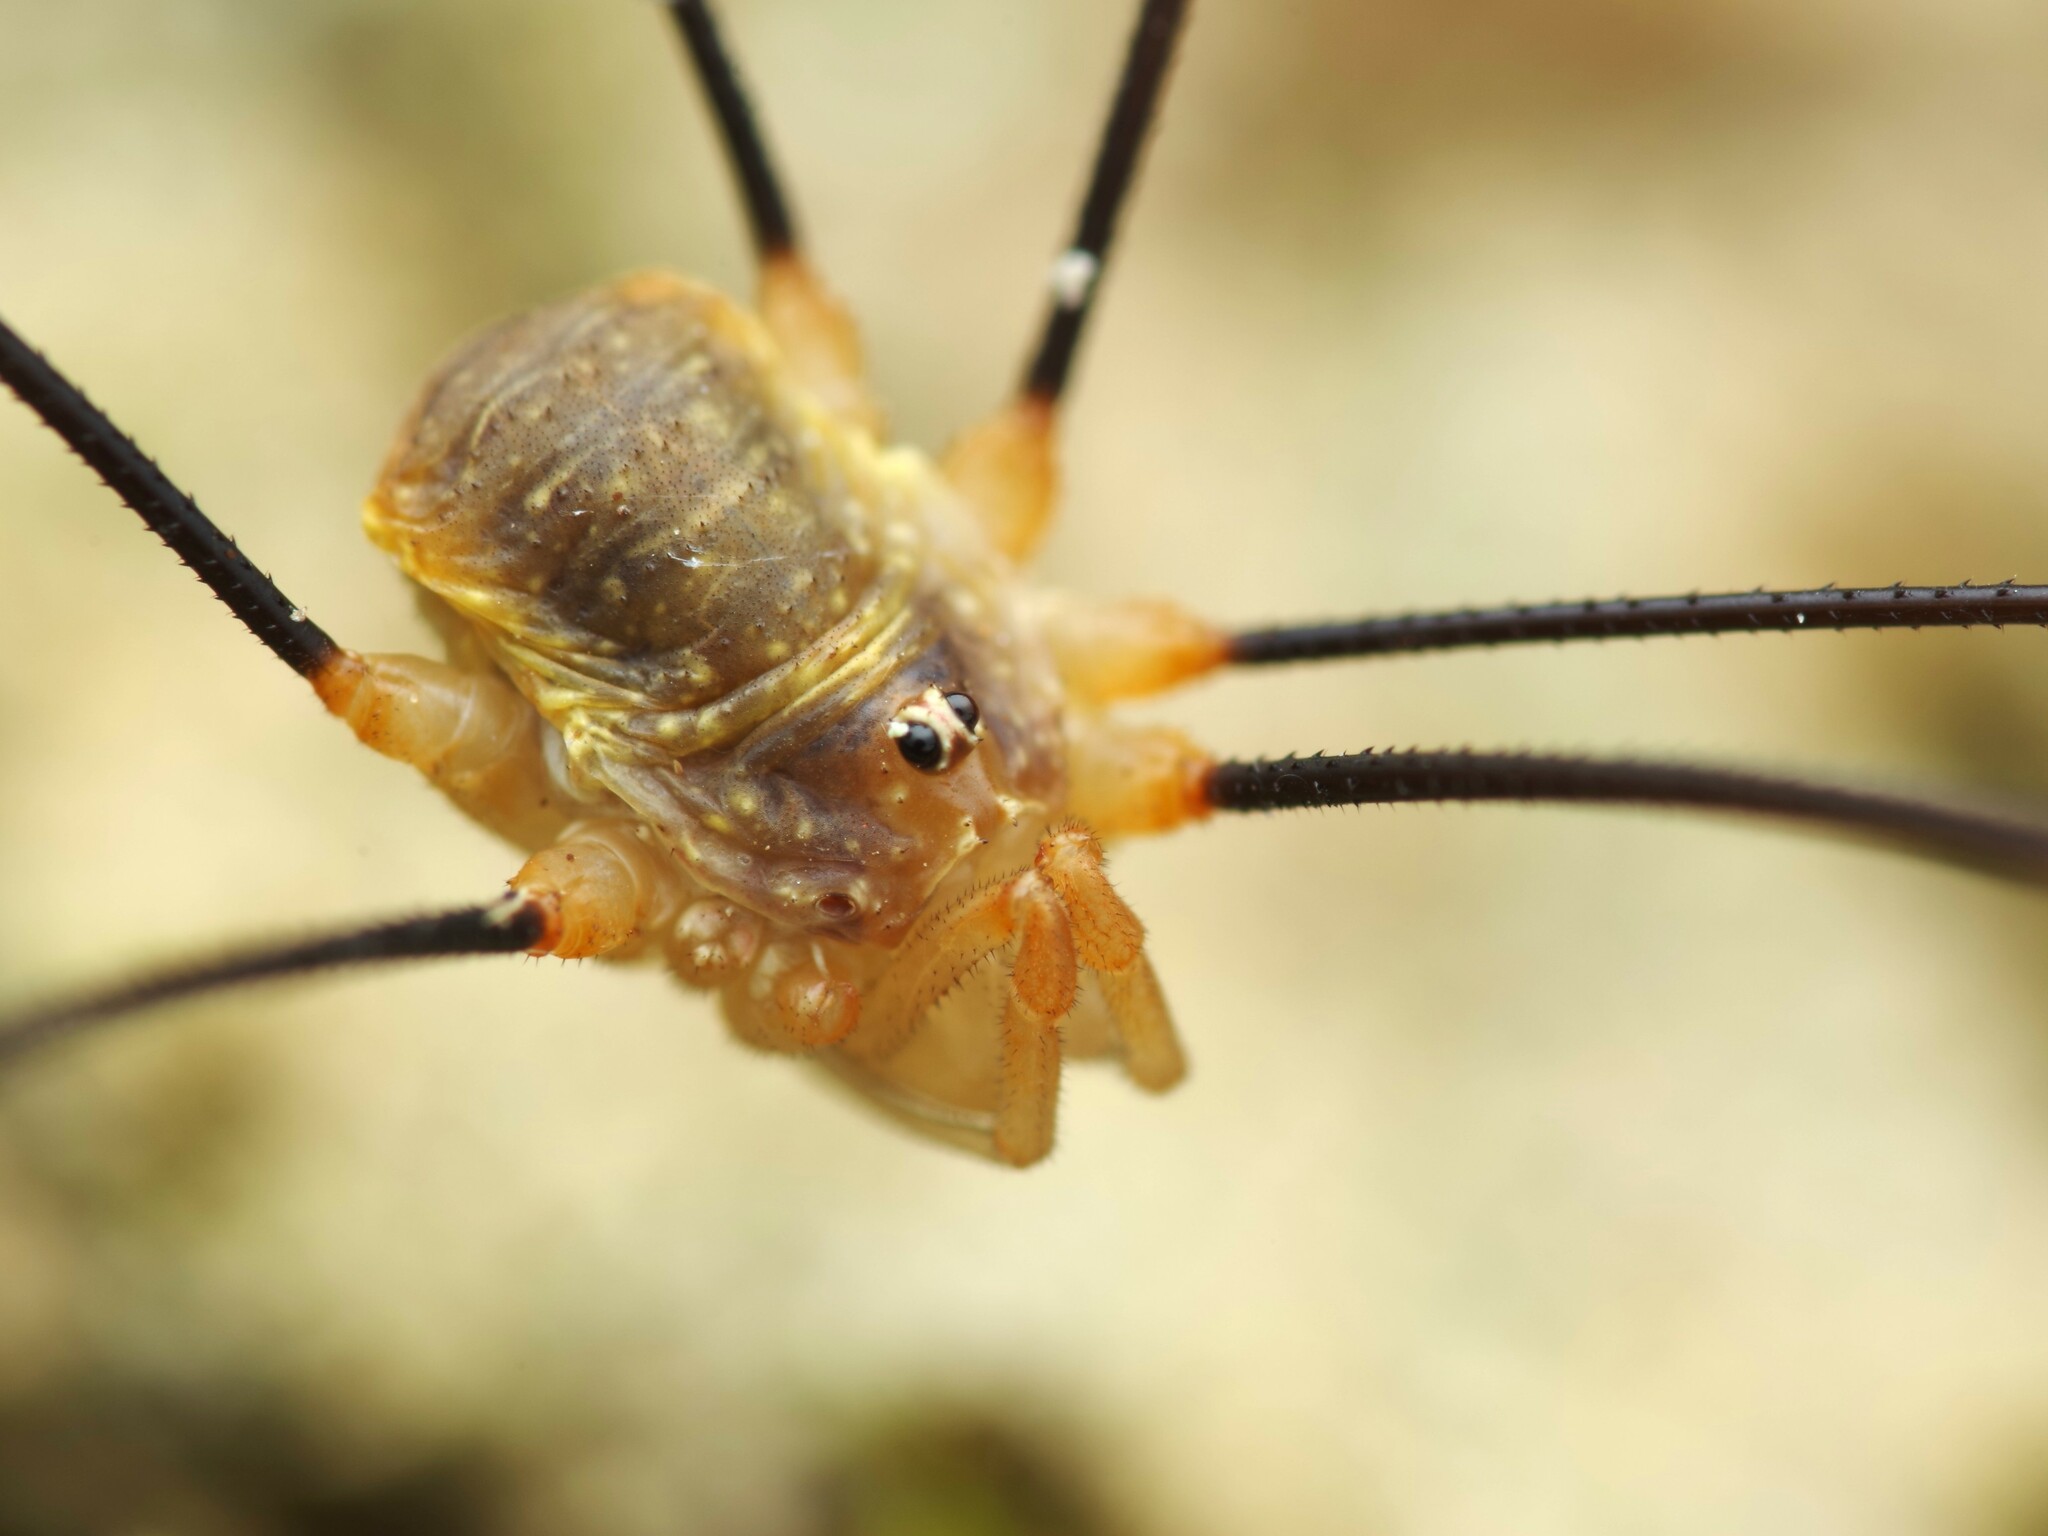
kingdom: Animalia
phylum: Arthropoda
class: Arachnida
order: Opiliones
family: Phalangiidae
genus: Opilio
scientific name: Opilio canestrinii
